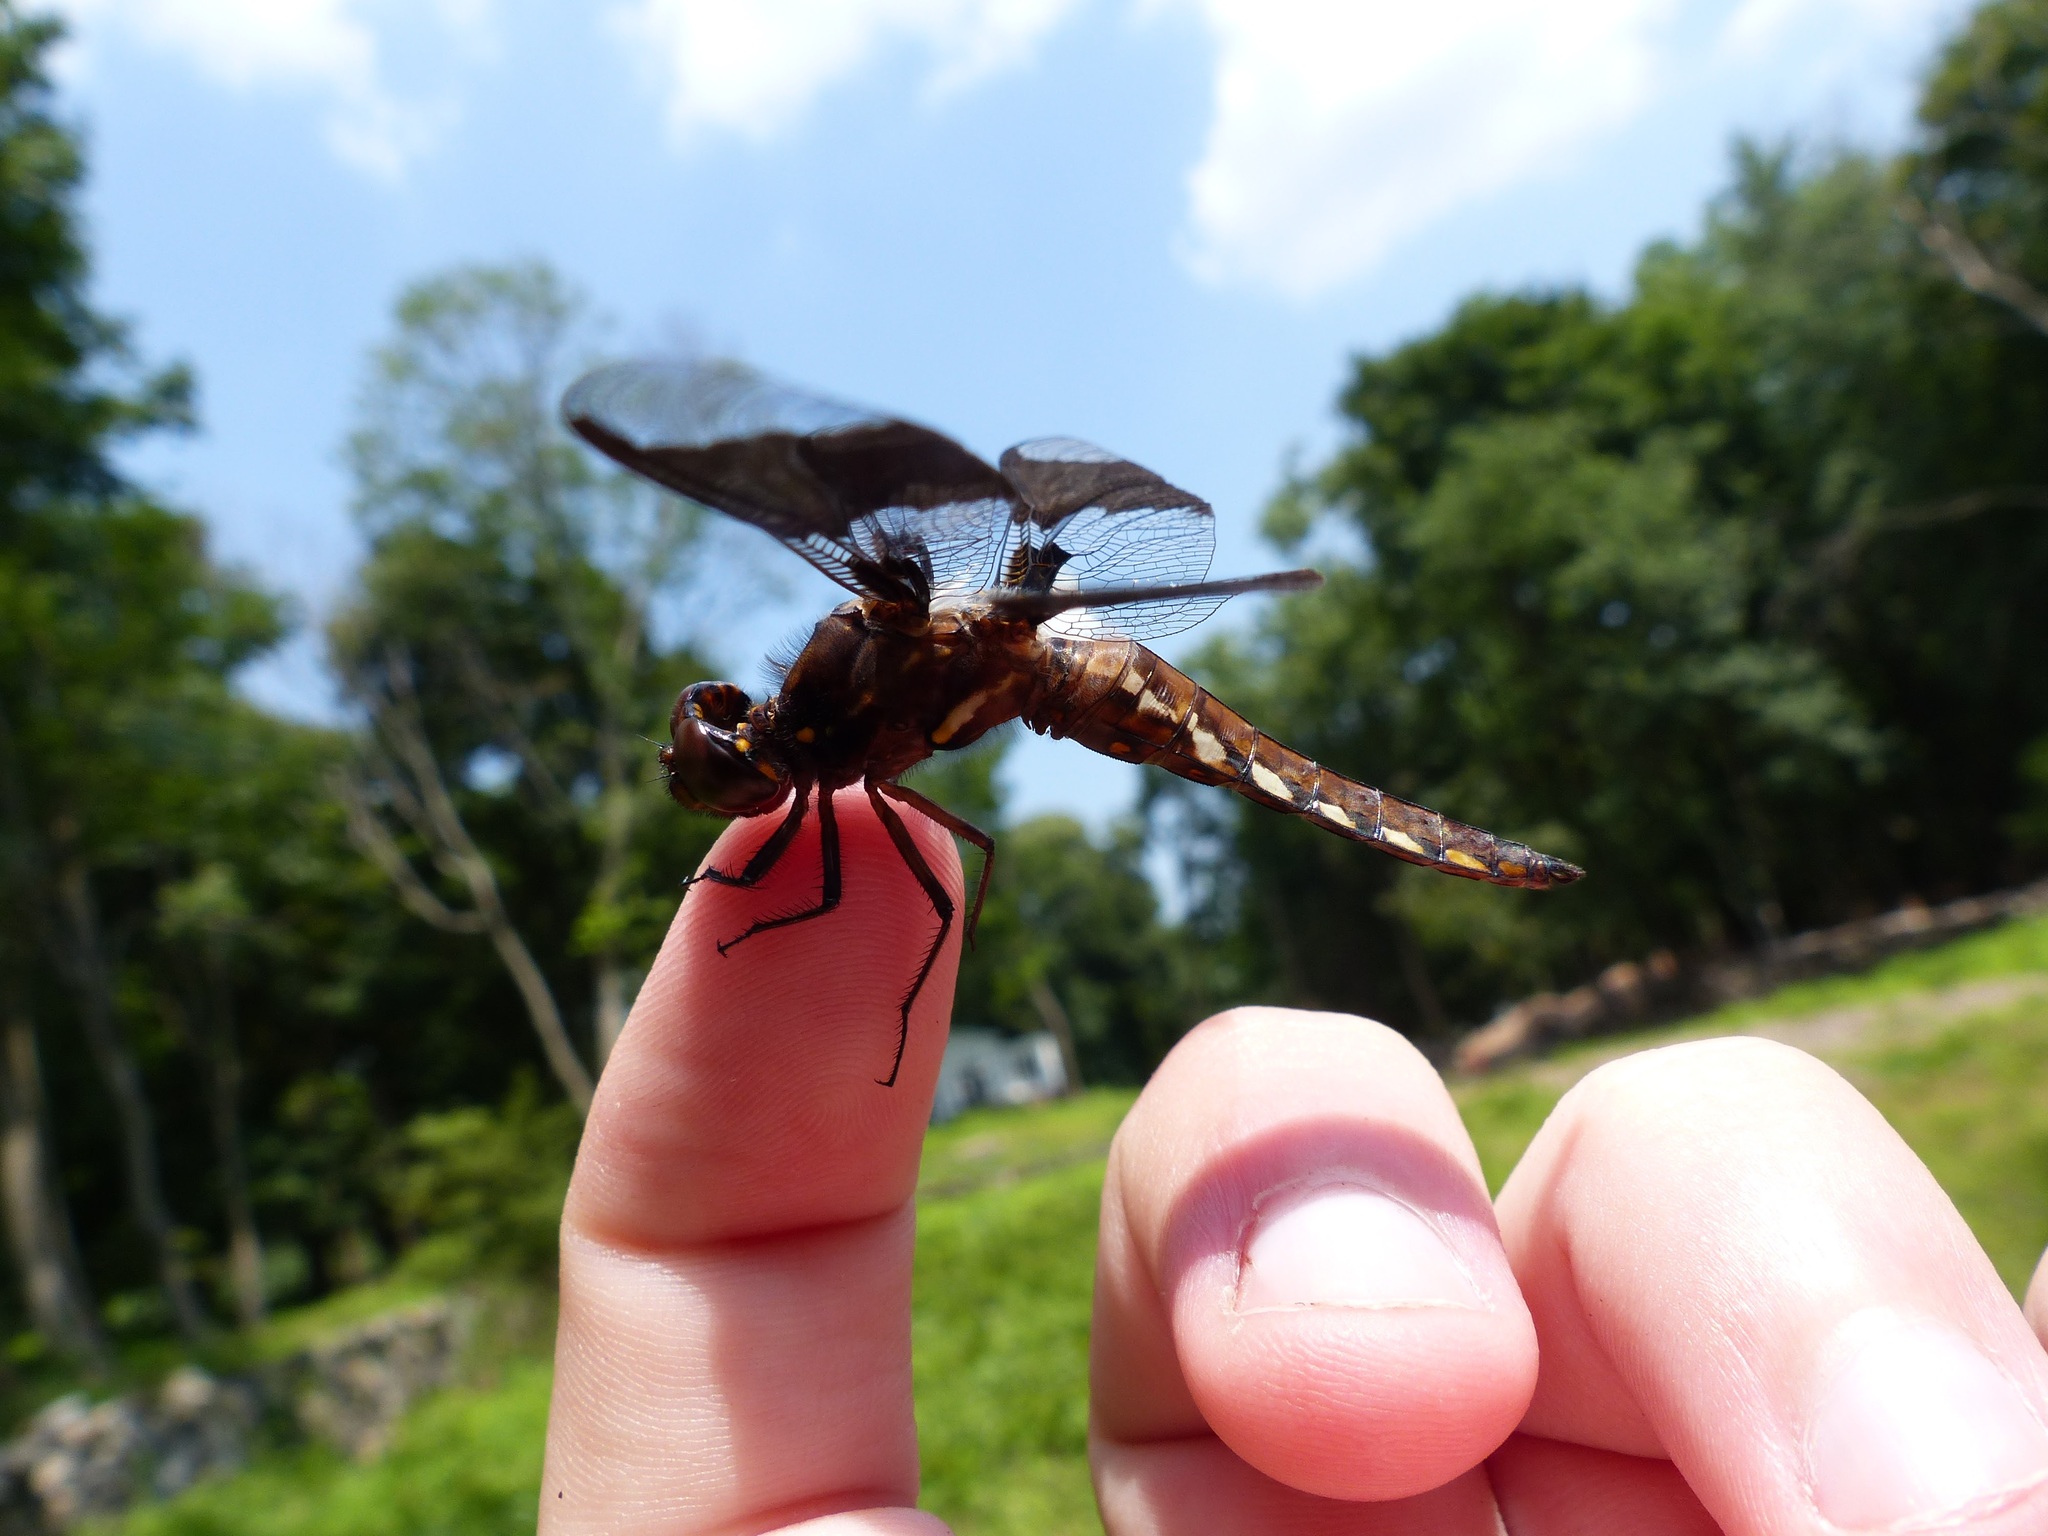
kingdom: Animalia
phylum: Arthropoda
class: Insecta
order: Odonata
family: Libellulidae
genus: Plathemis
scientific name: Plathemis lydia
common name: Common whitetail
